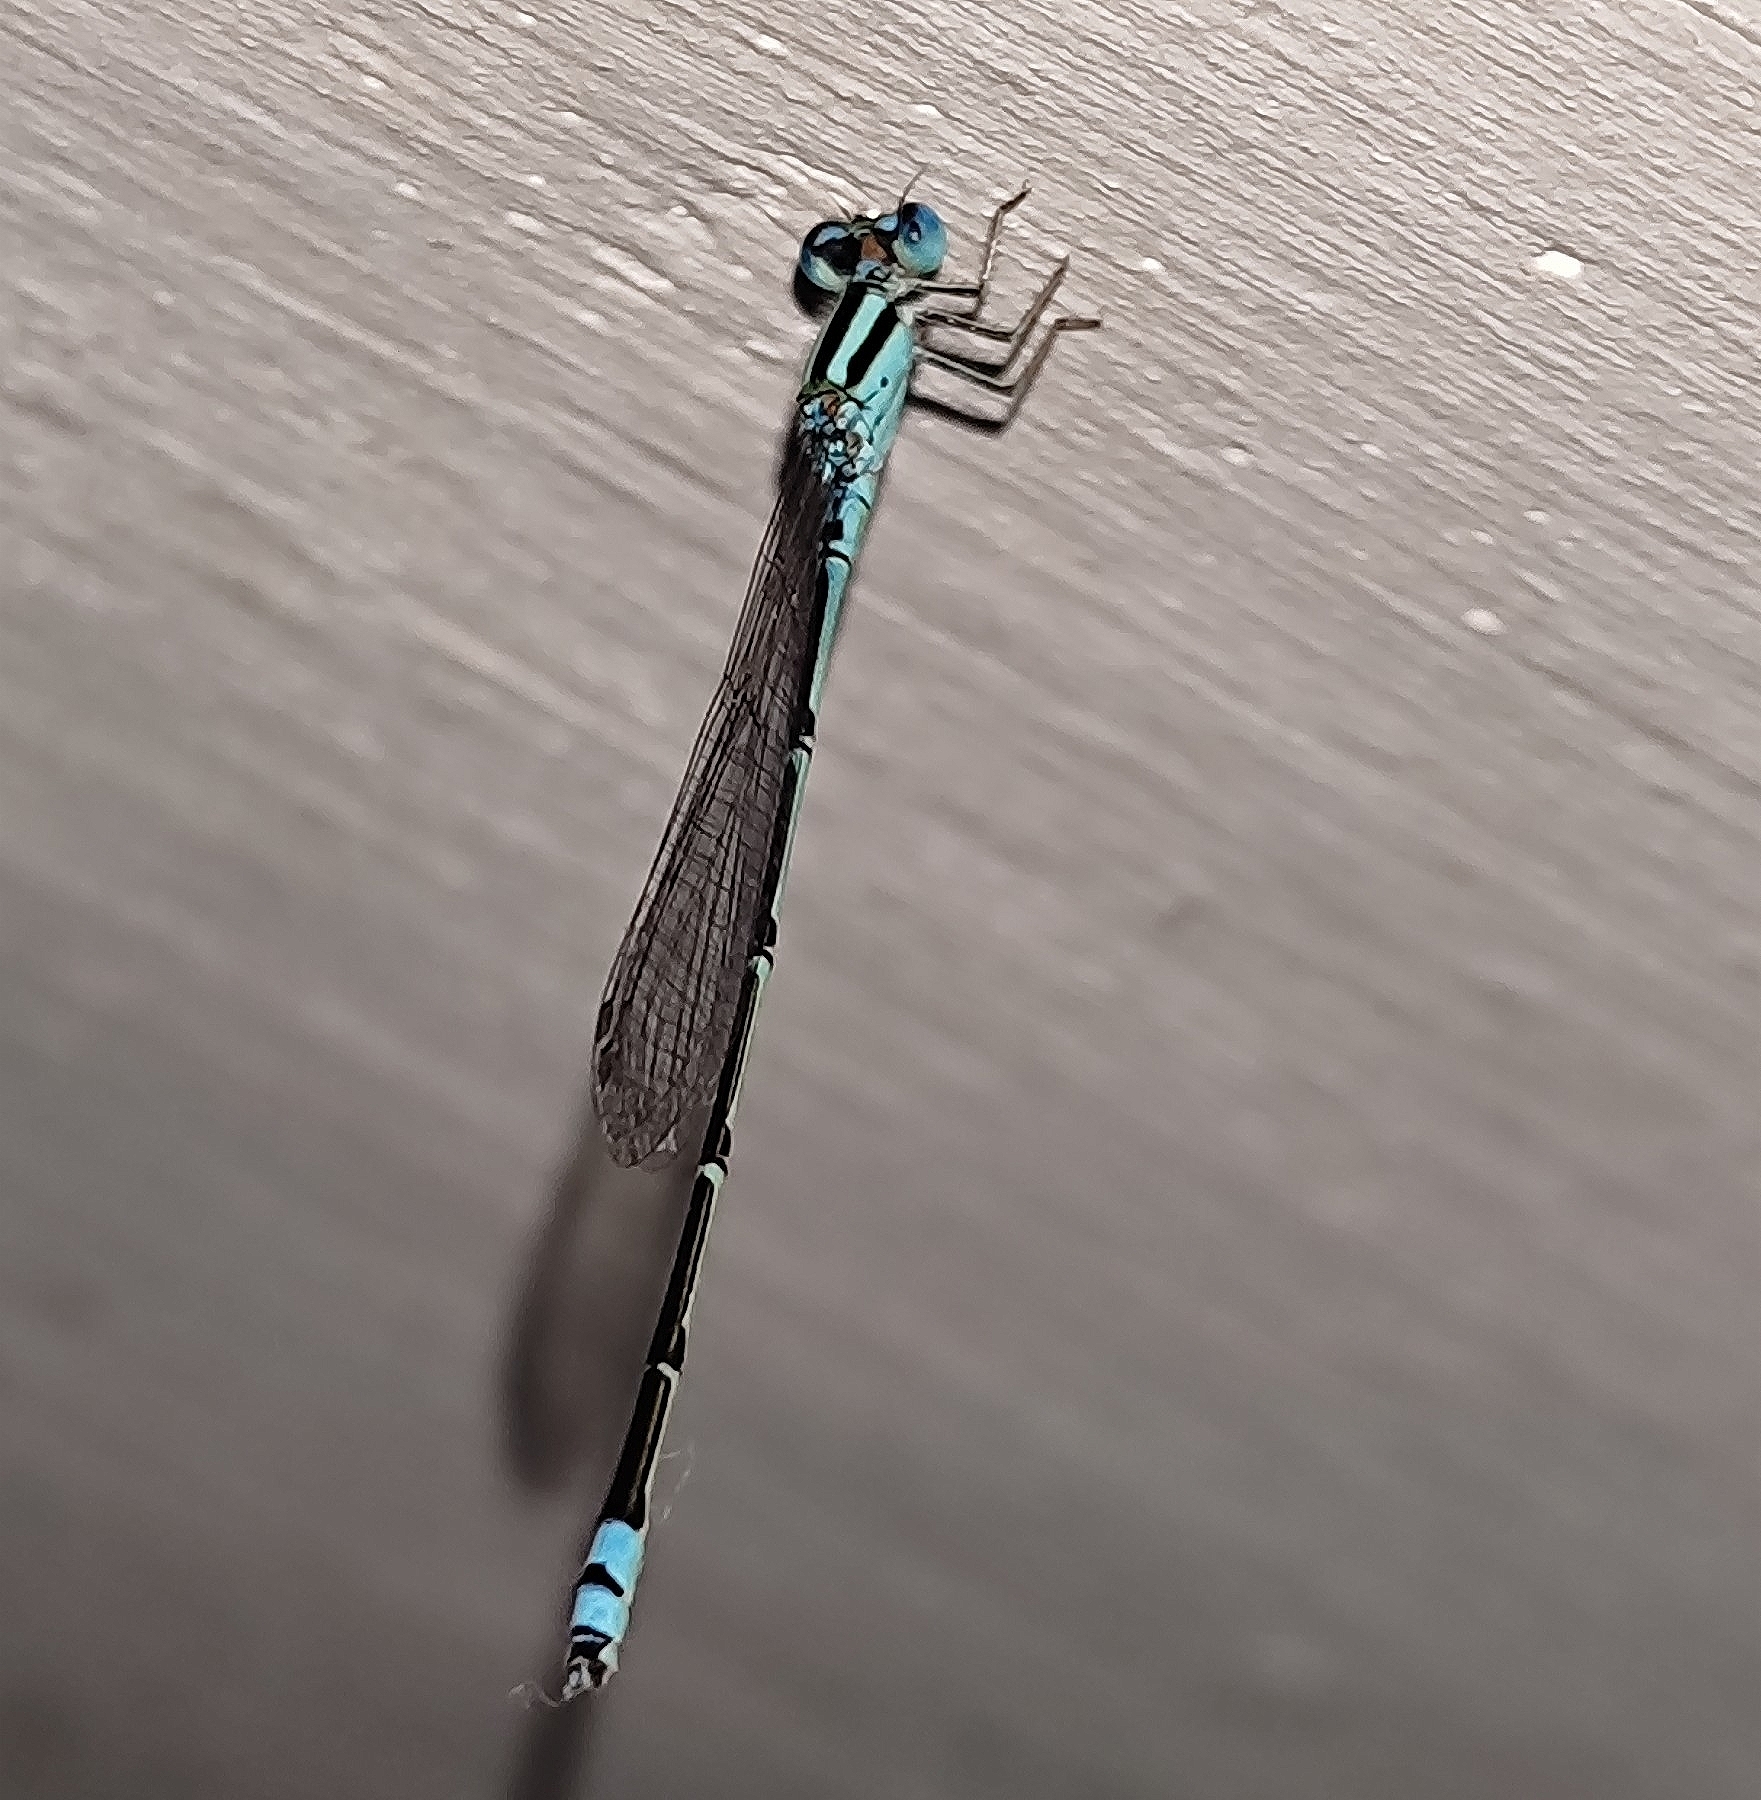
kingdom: Animalia
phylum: Arthropoda
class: Insecta
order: Odonata
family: Coenagrionidae
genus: Pseudagrion
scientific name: Pseudagrion microcephalum
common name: Blue riverdamsel
